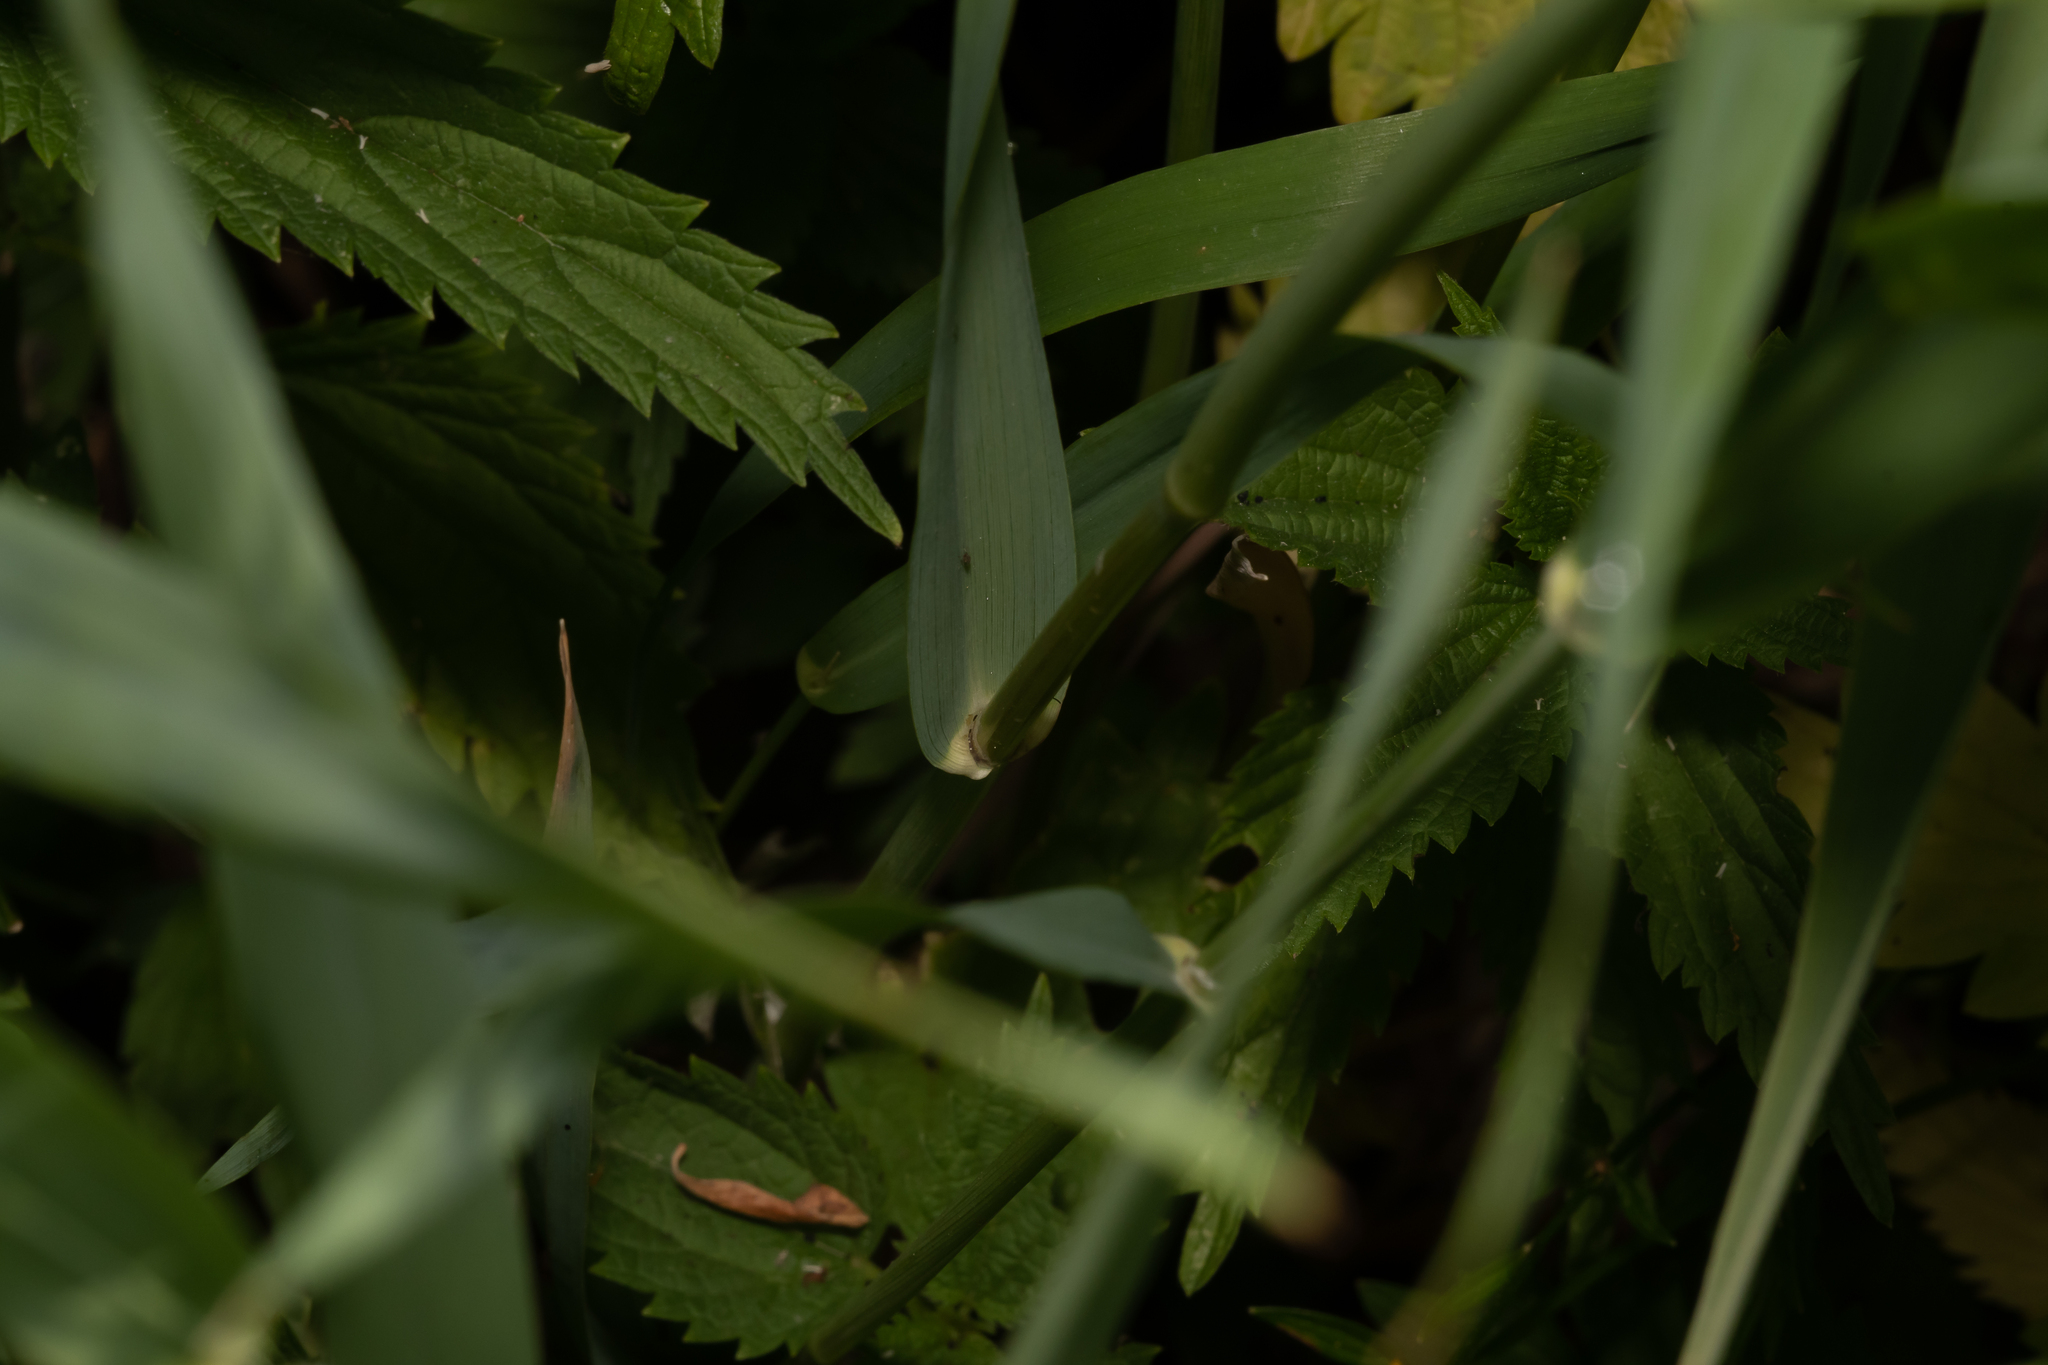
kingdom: Plantae
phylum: Tracheophyta
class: Liliopsida
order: Poales
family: Poaceae
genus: Dactylis
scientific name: Dactylis glomerata
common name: Orchardgrass
